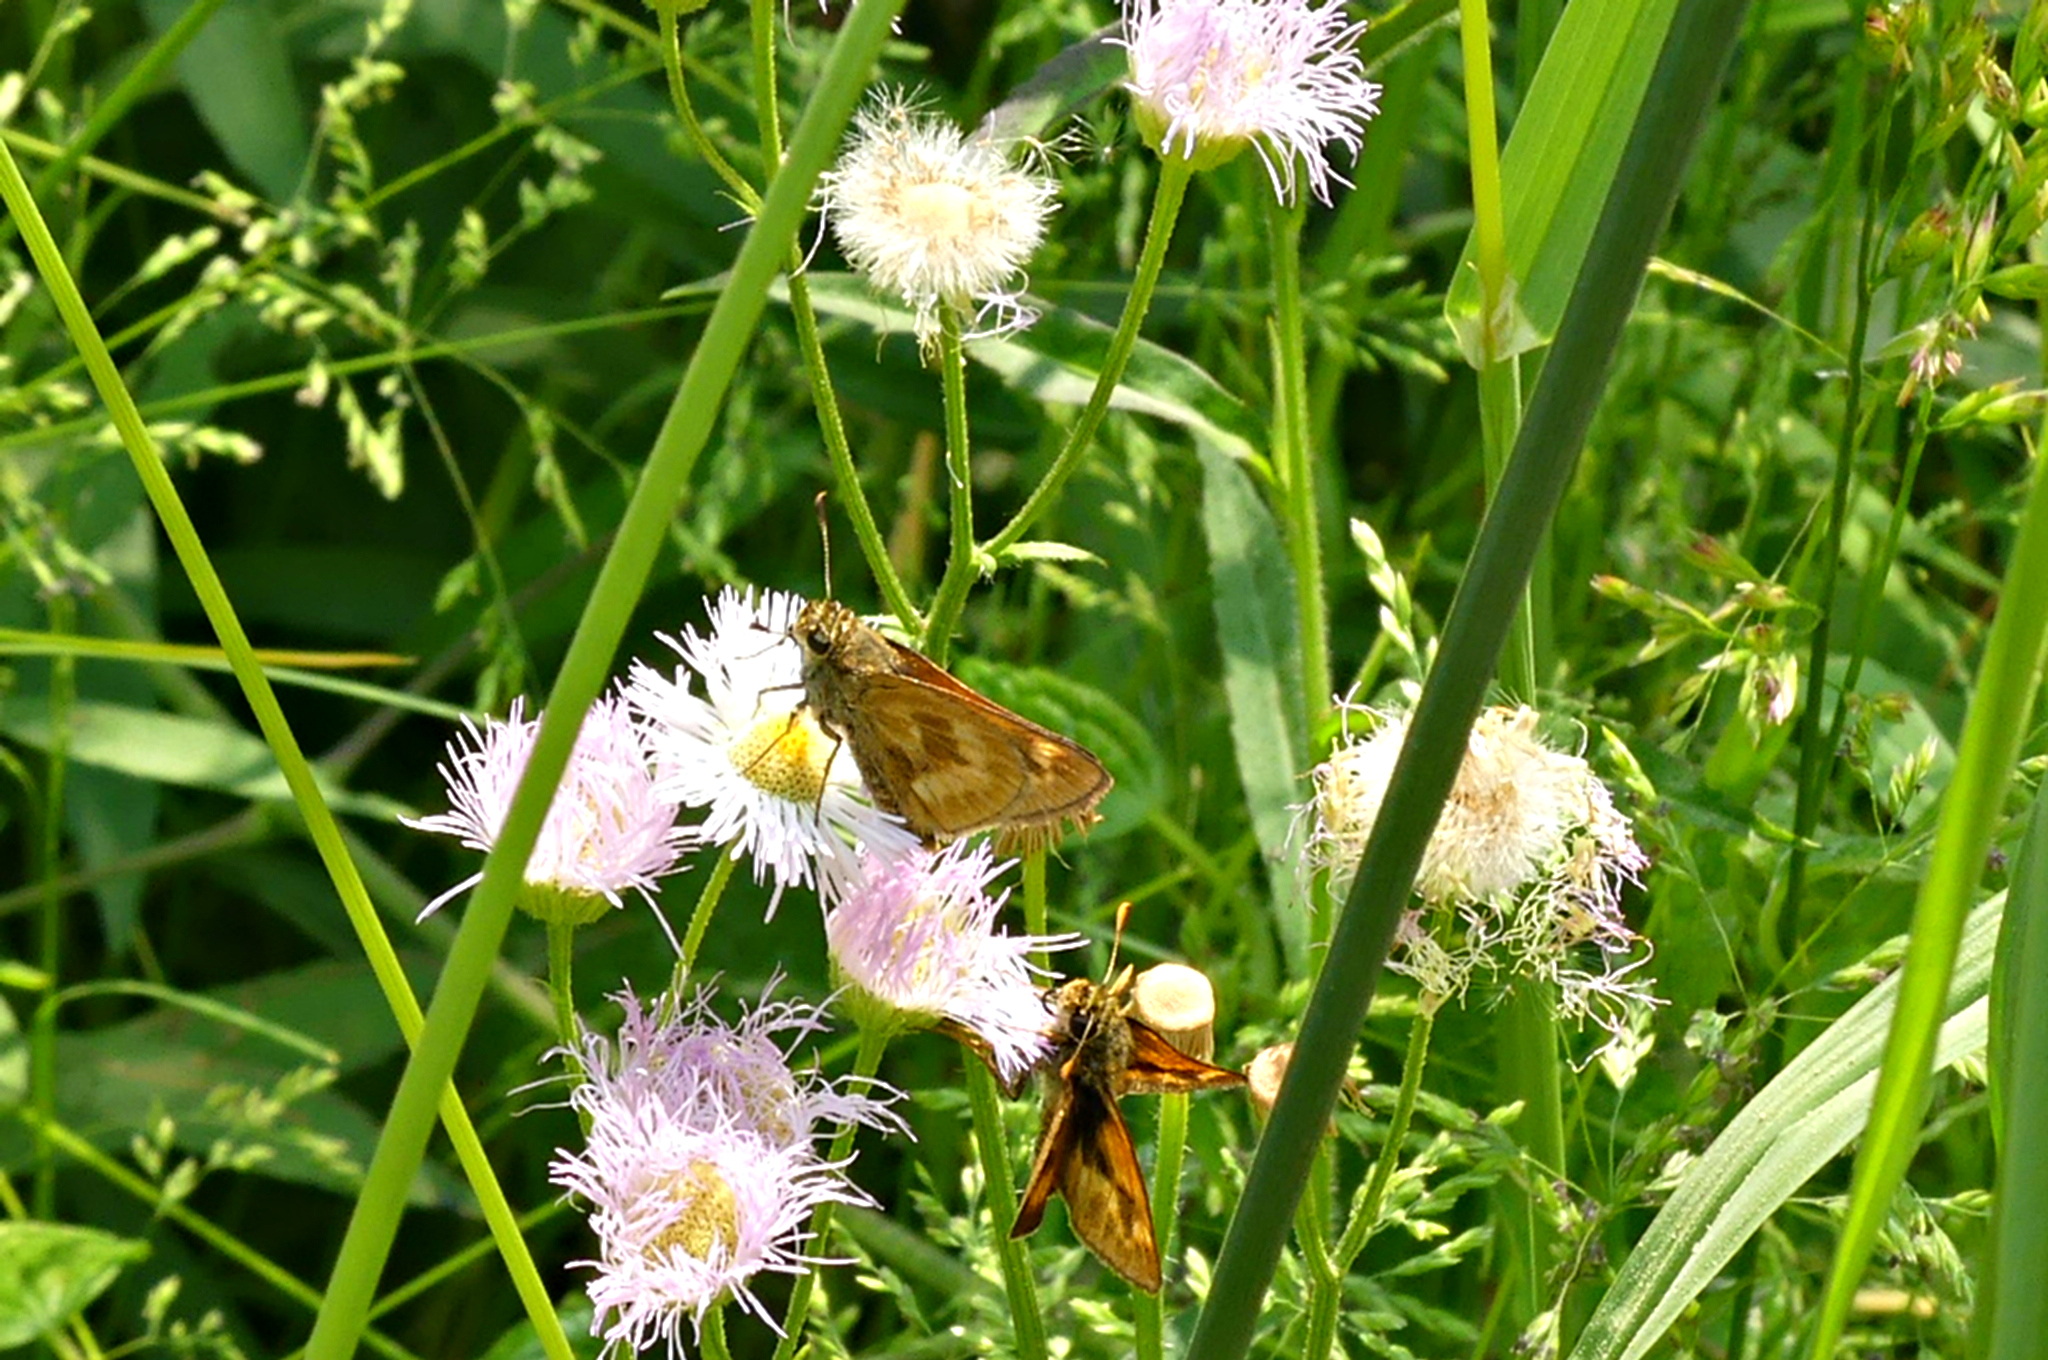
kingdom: Animalia
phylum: Arthropoda
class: Insecta
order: Lepidoptera
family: Hesperiidae
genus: Polites
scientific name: Polites mystic
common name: Long dash
